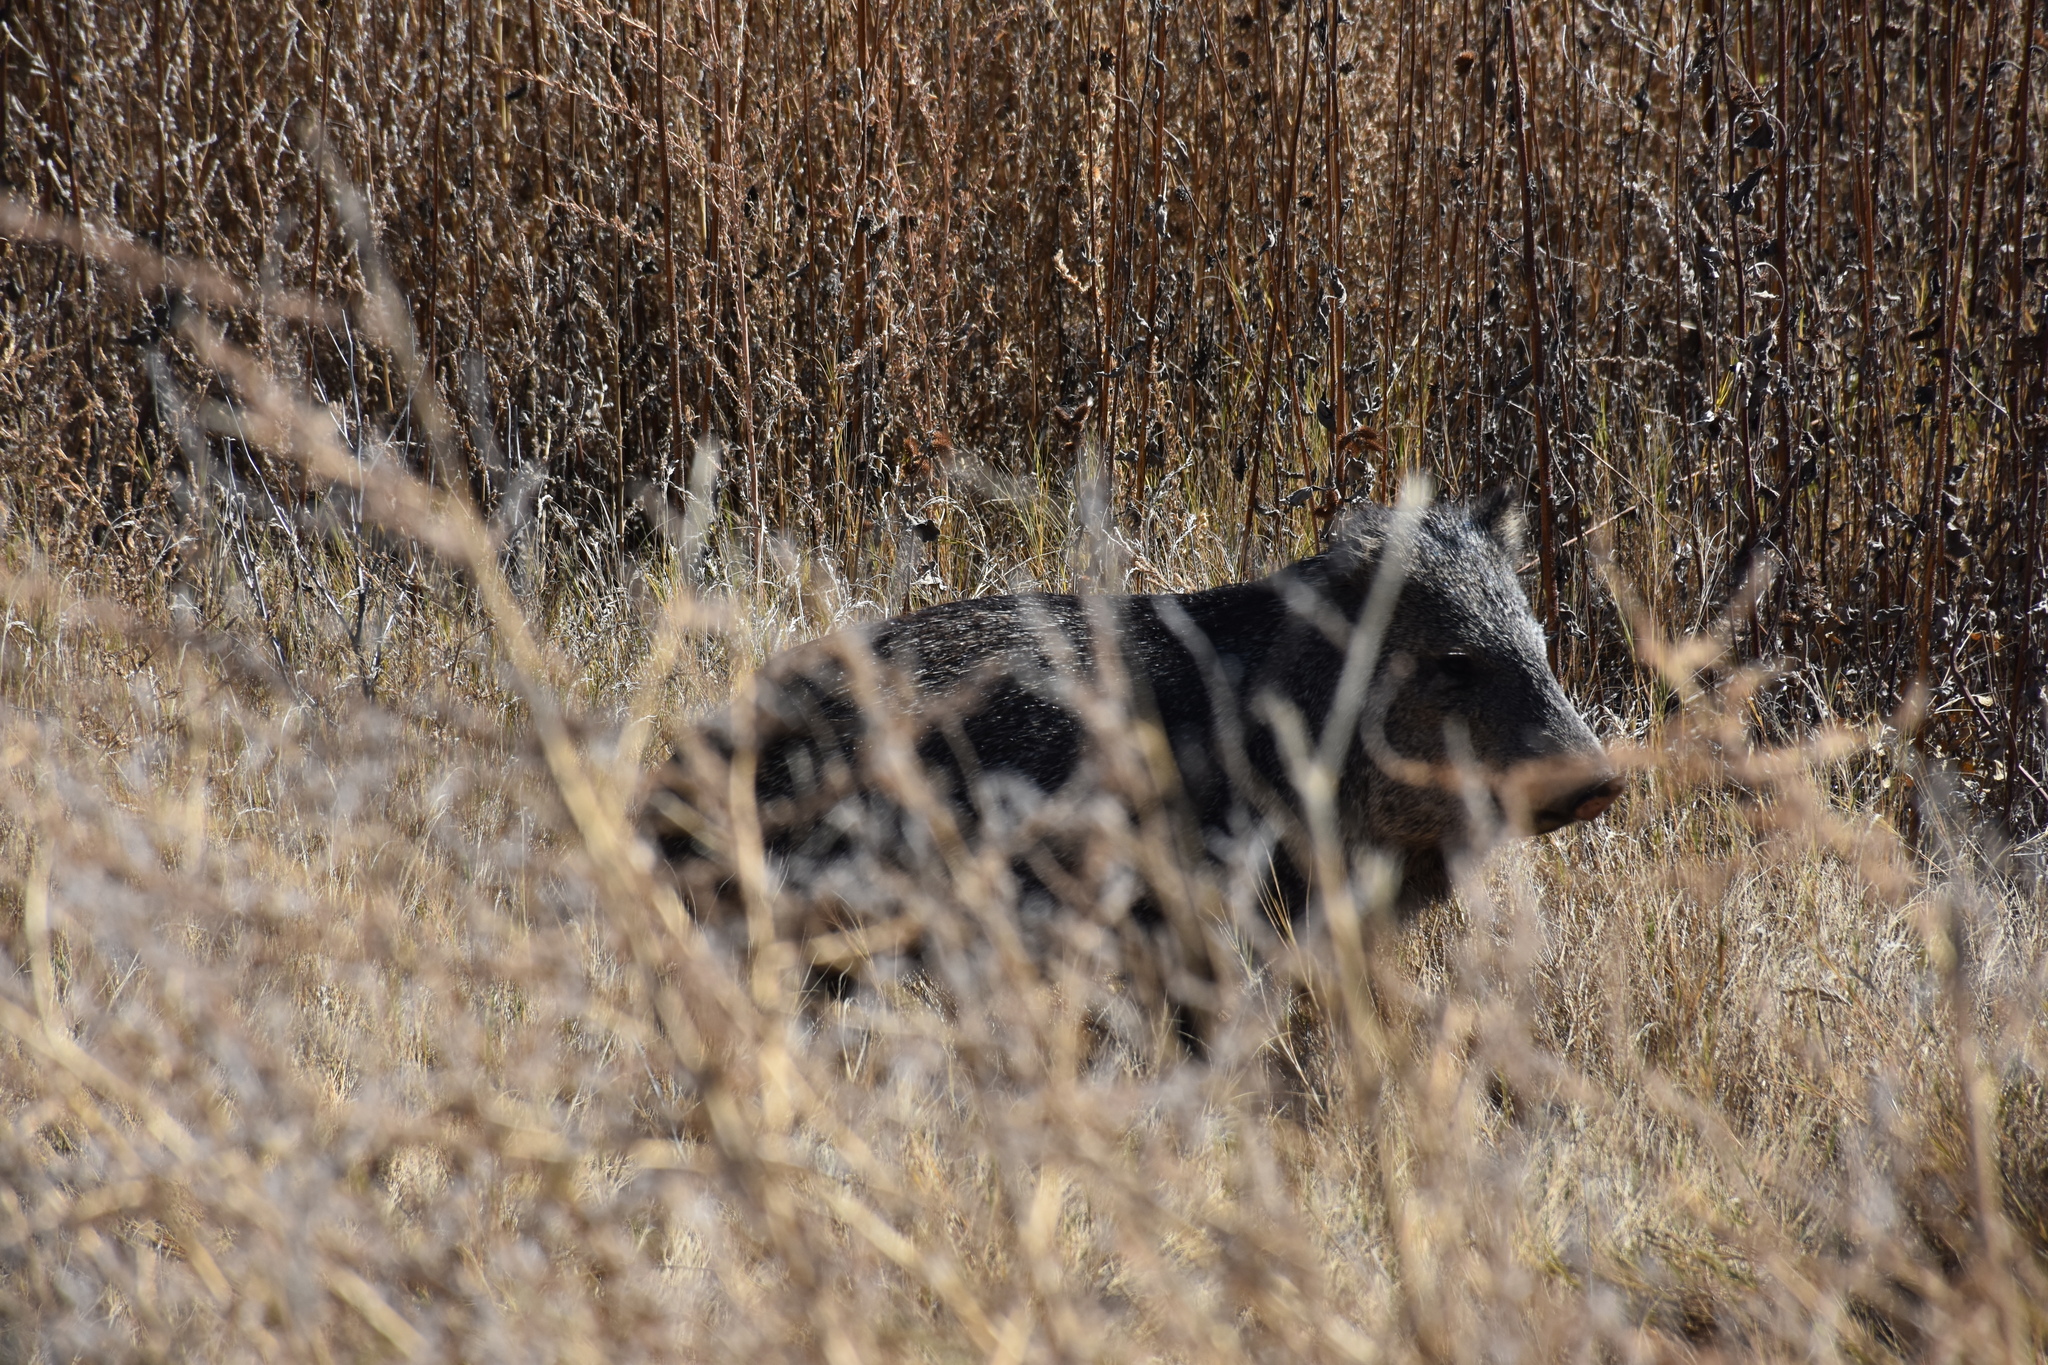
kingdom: Animalia
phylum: Chordata
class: Mammalia
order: Artiodactyla
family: Tayassuidae
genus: Pecari
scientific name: Pecari tajacu
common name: Collared peccary
